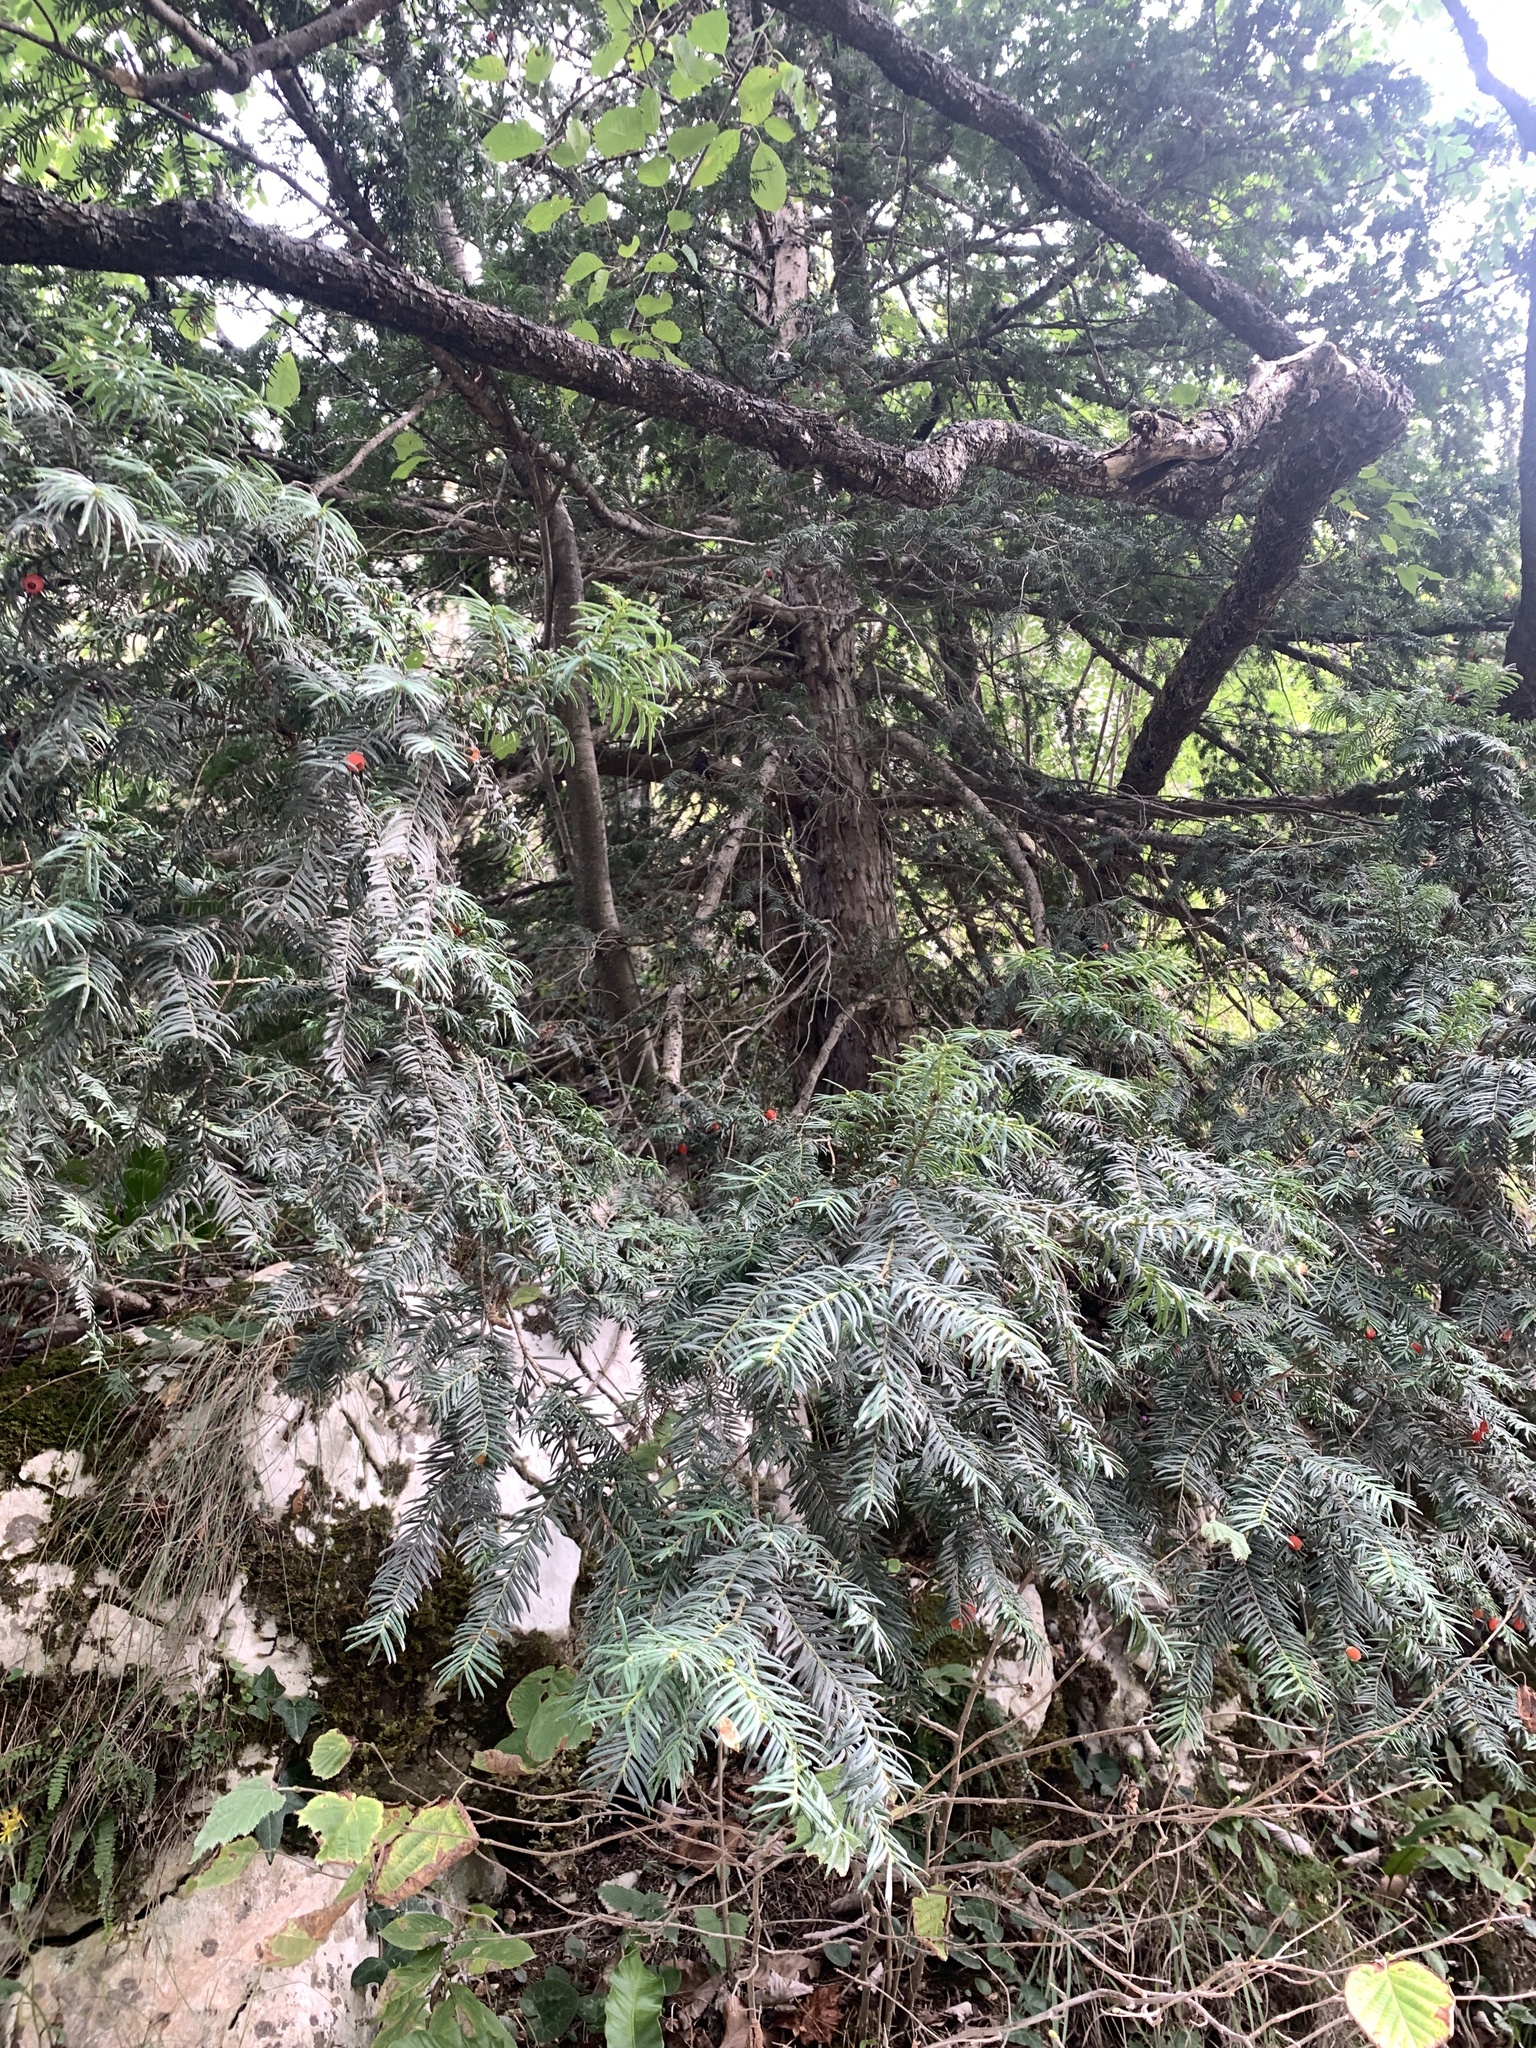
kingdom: Plantae
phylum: Tracheophyta
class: Pinopsida
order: Pinales
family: Taxaceae
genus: Taxus
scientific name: Taxus baccata
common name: Yew
